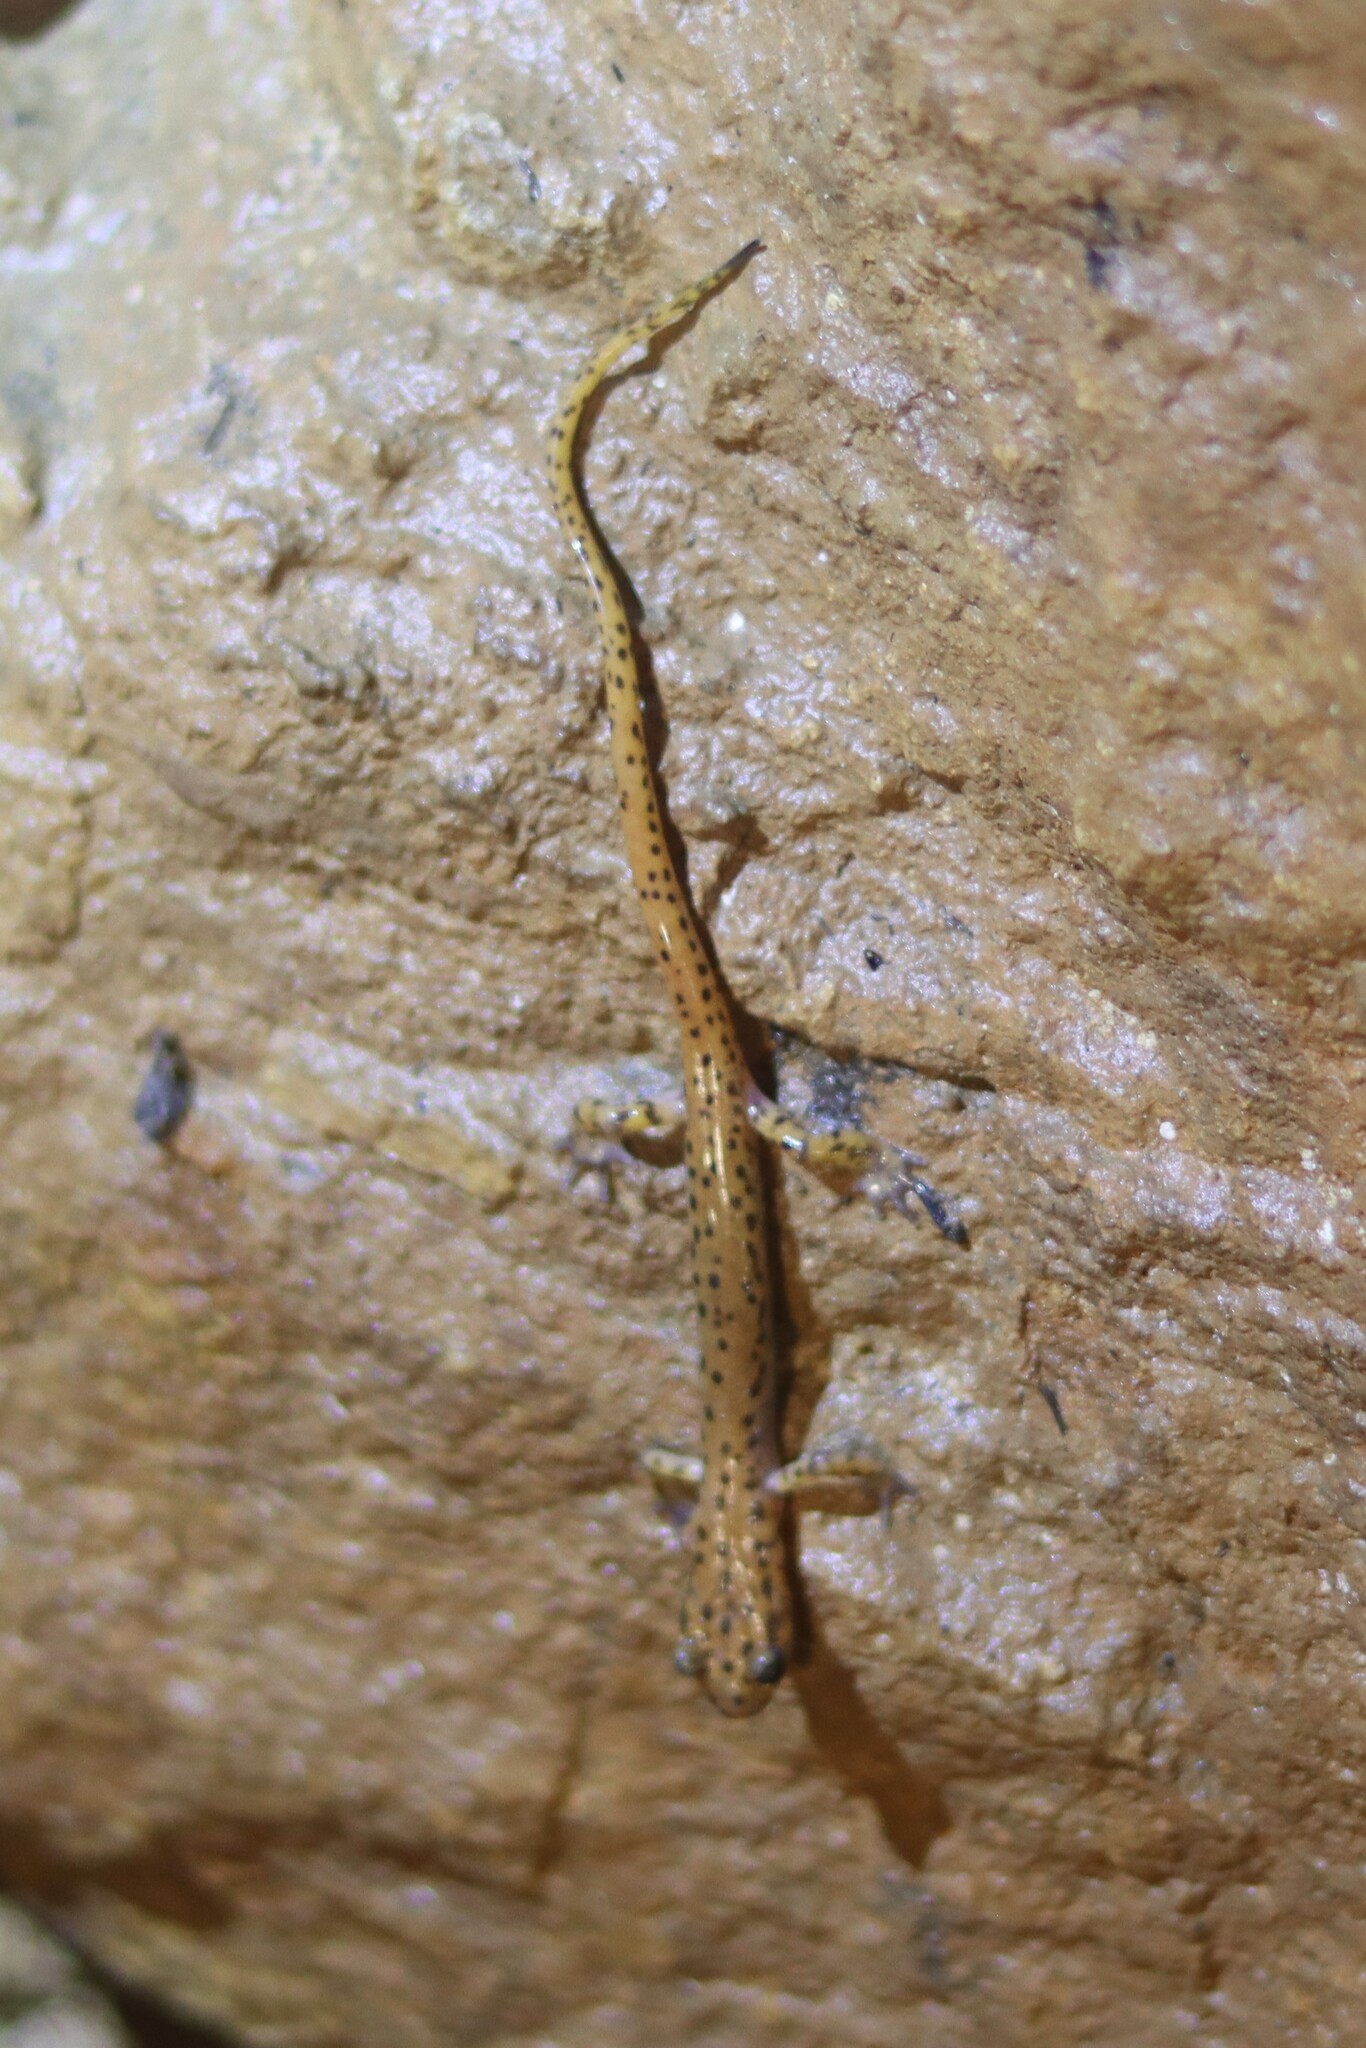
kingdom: Animalia
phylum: Chordata
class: Amphibia
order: Caudata
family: Plethodontidae
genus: Eurycea
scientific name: Eurycea lucifuga
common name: Cave salamander
